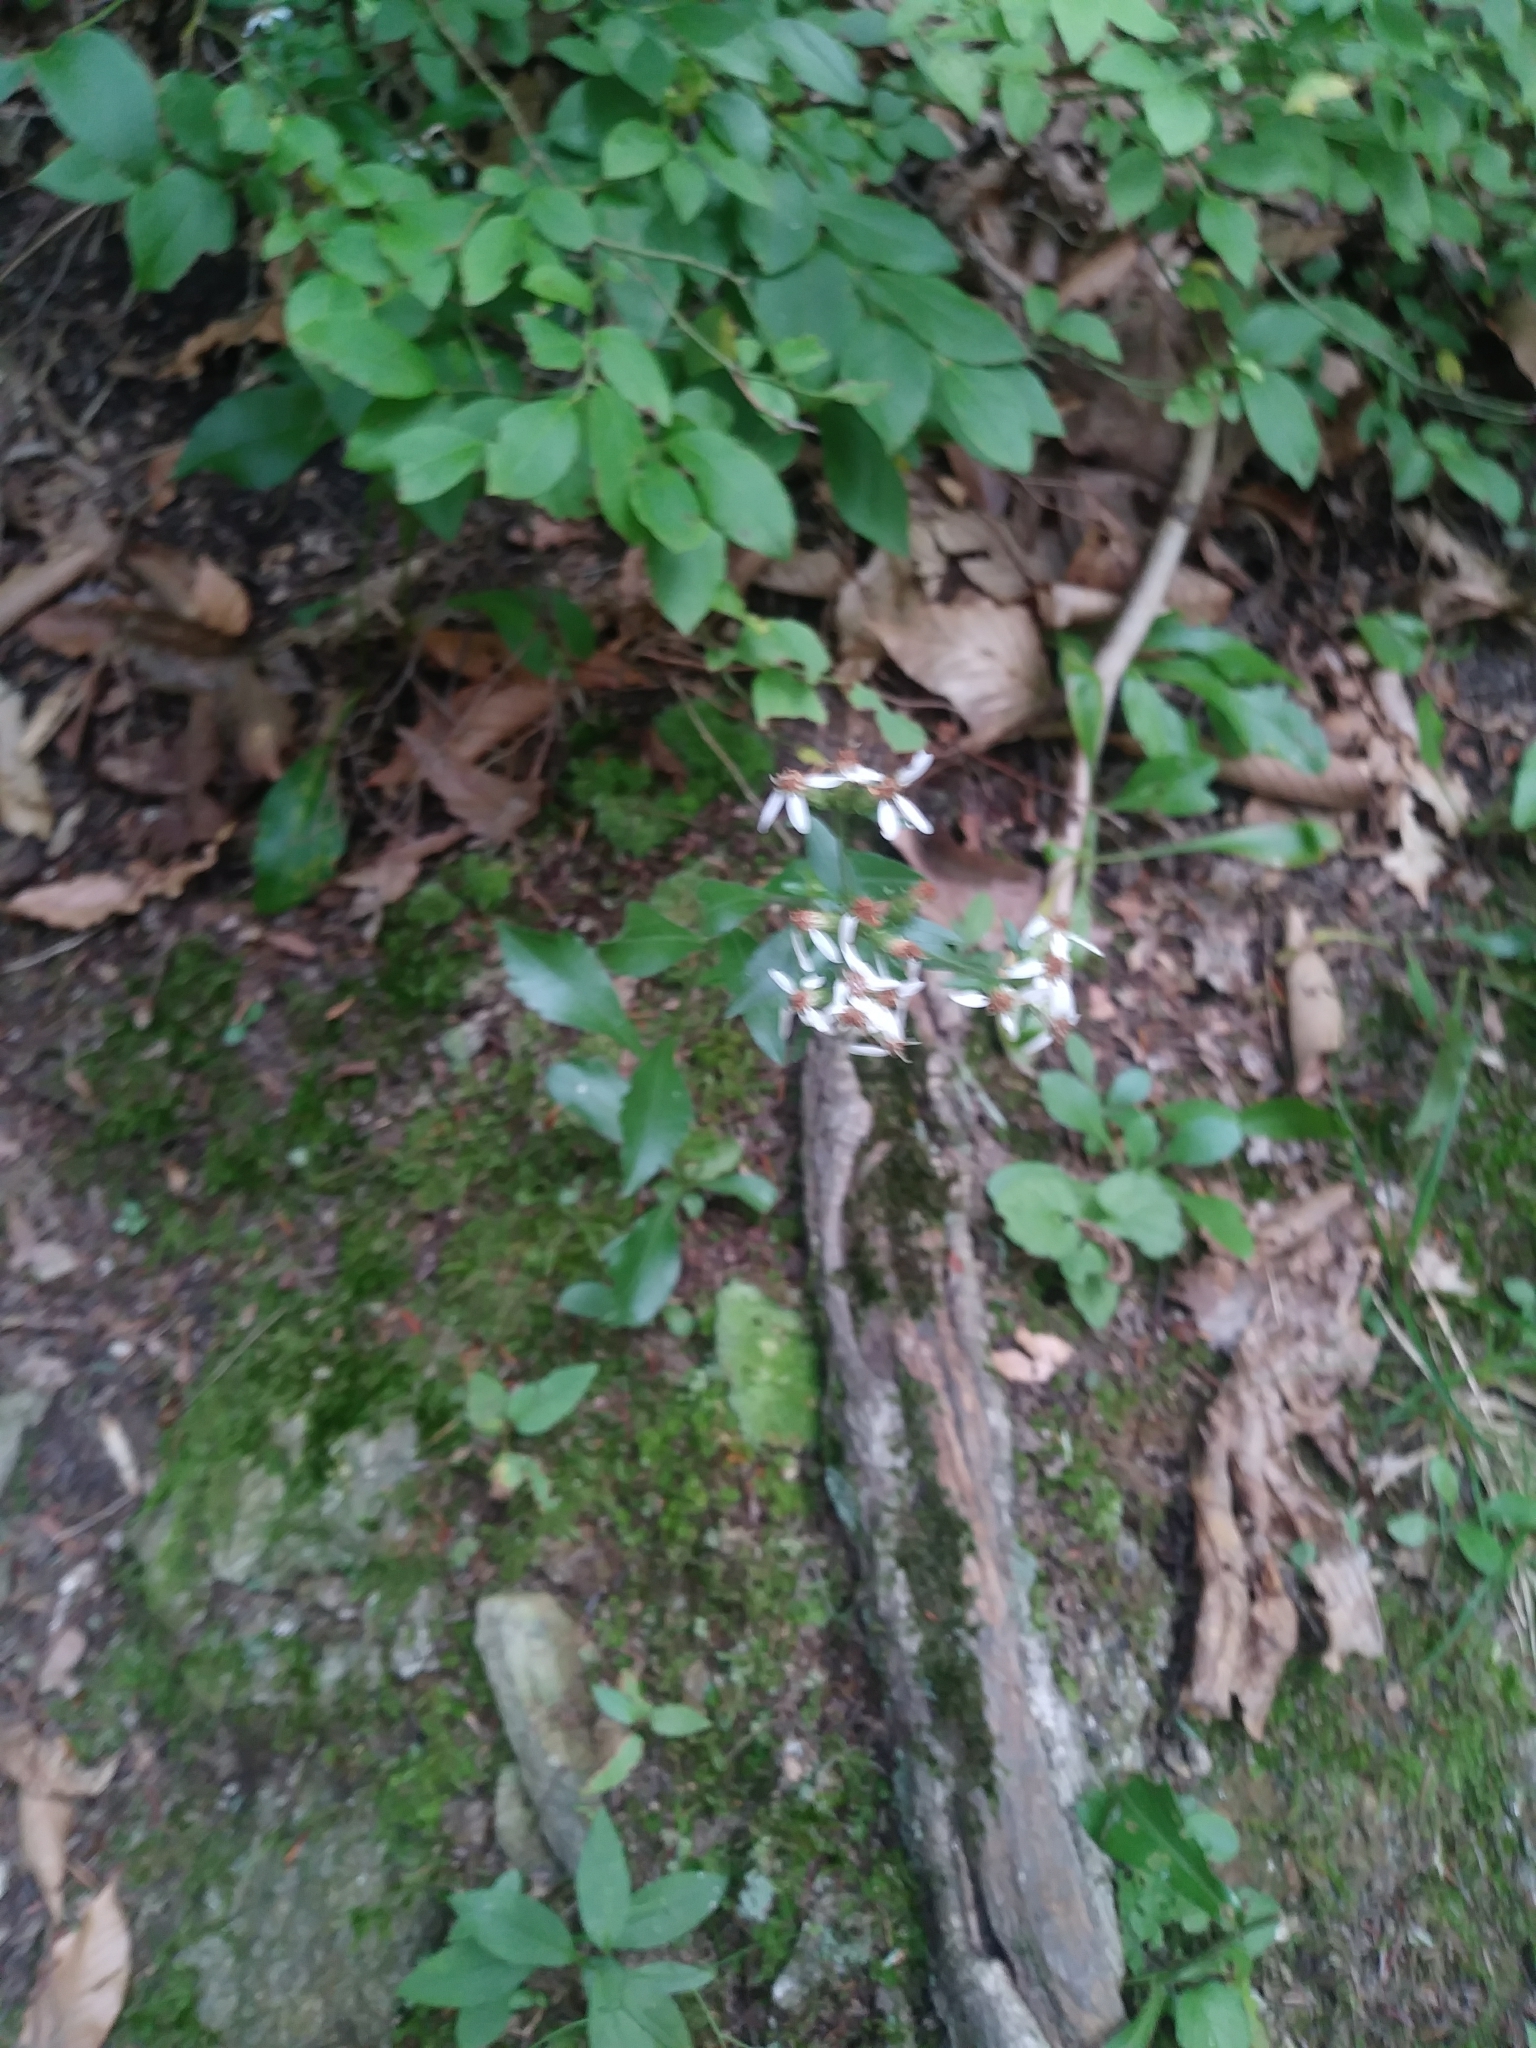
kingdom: Plantae
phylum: Tracheophyta
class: Magnoliopsida
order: Asterales
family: Asteraceae
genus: Sericocarpus
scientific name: Sericocarpus asteroides
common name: Toothed white-top aster
